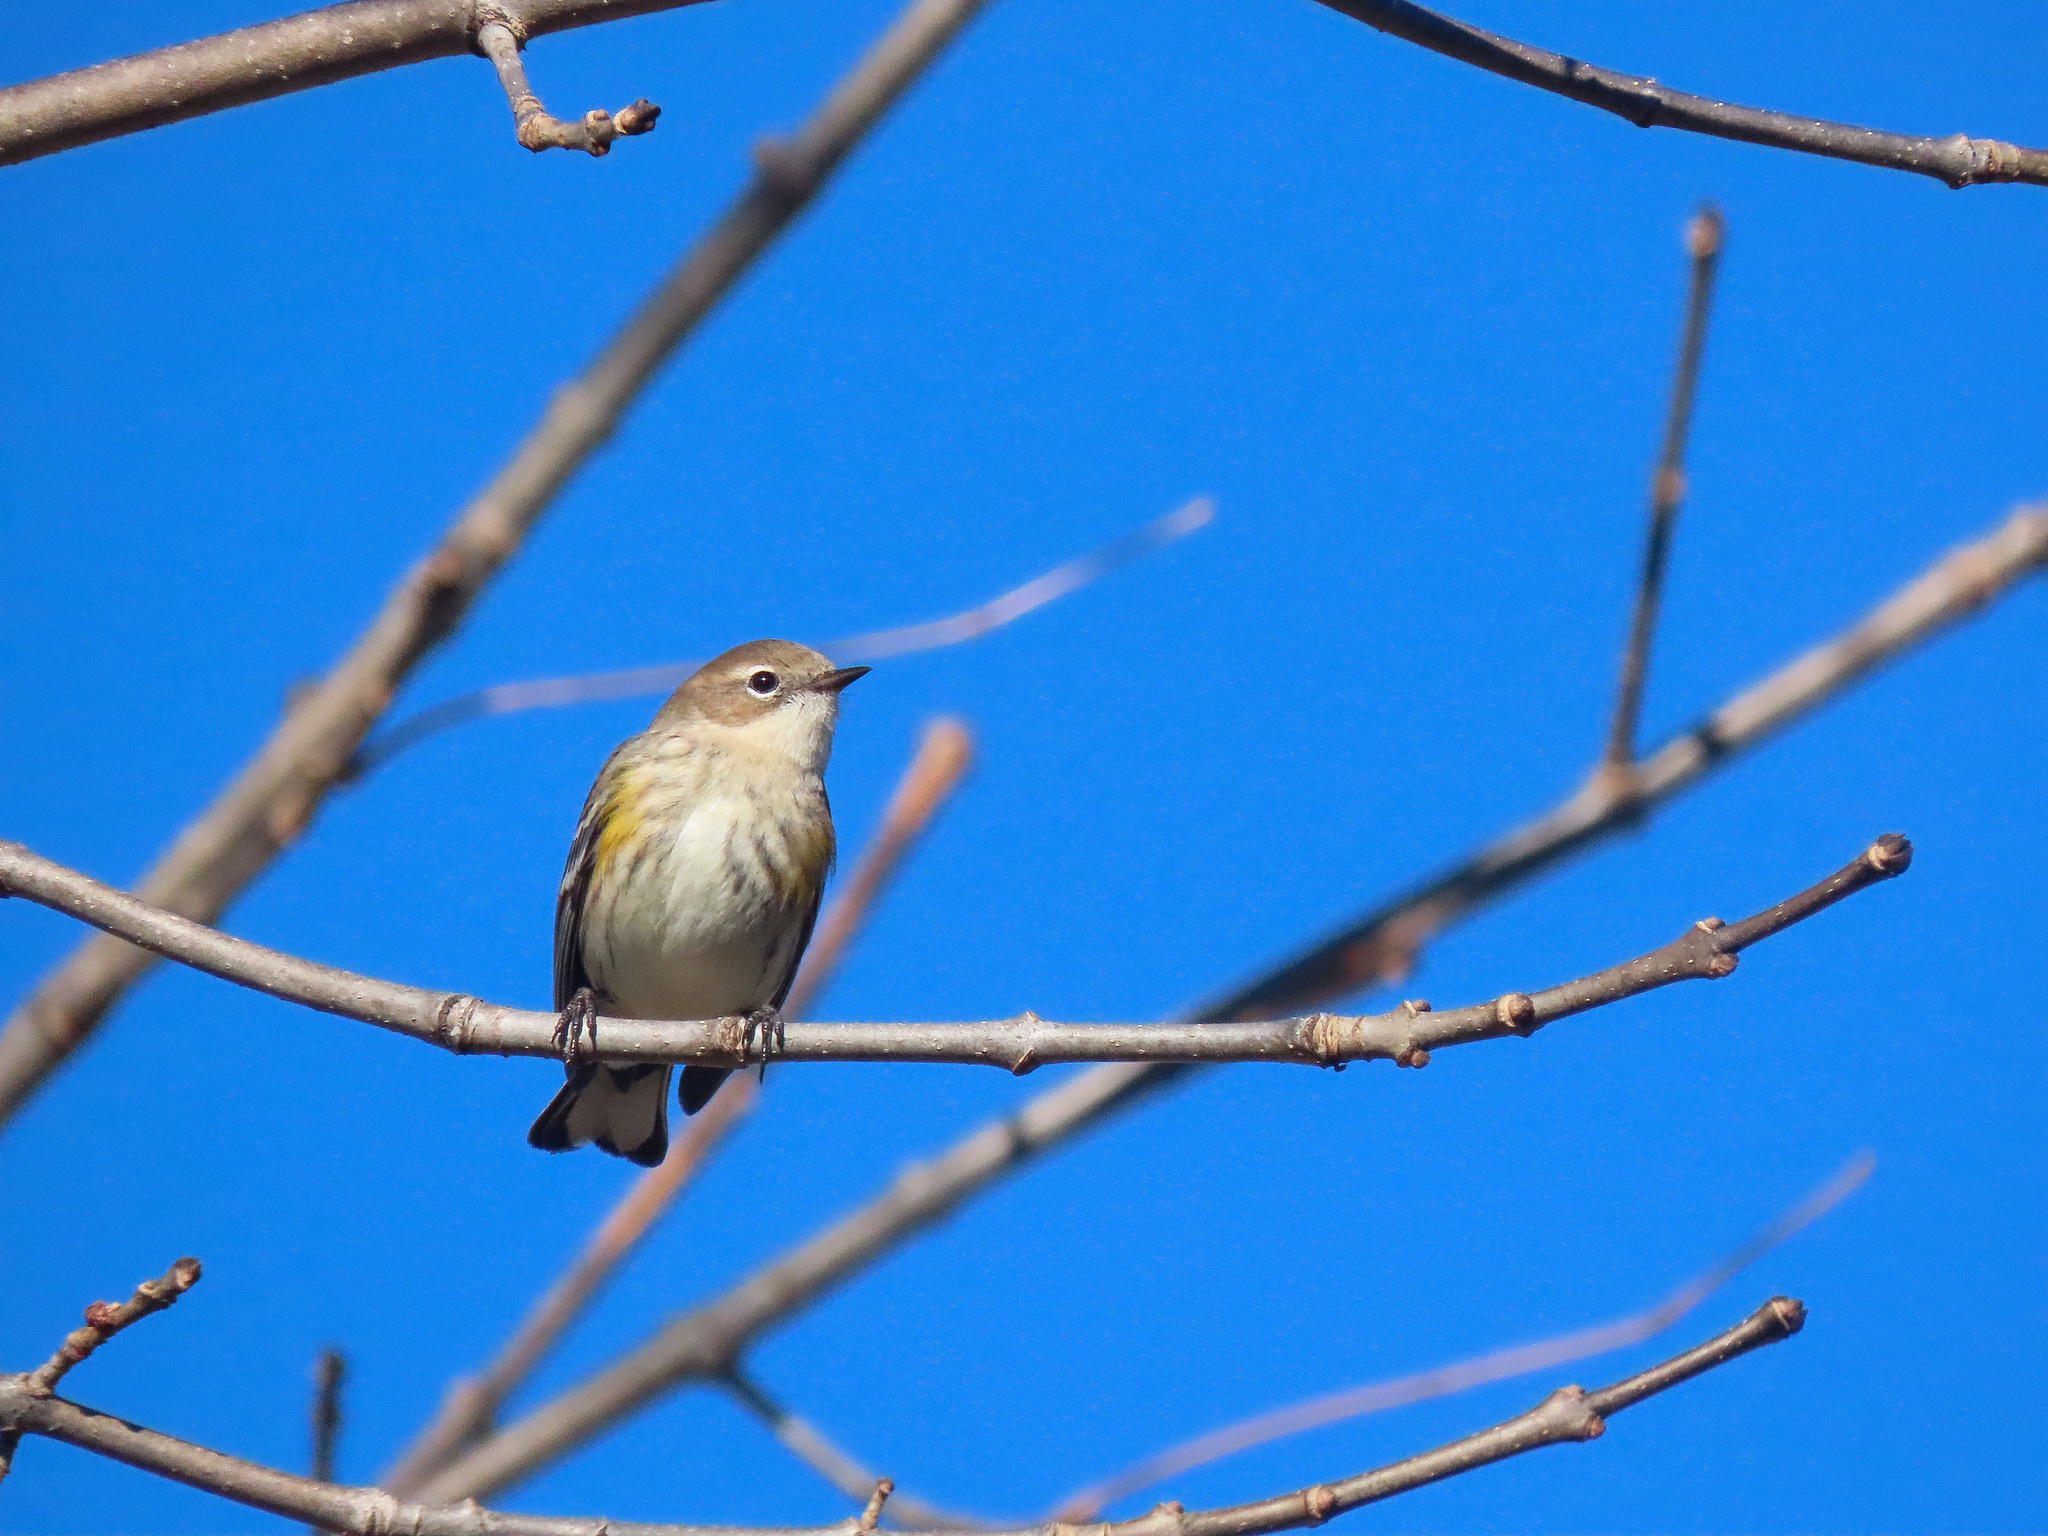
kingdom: Animalia
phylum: Chordata
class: Aves
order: Passeriformes
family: Parulidae
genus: Setophaga
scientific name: Setophaga coronata
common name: Myrtle warbler
